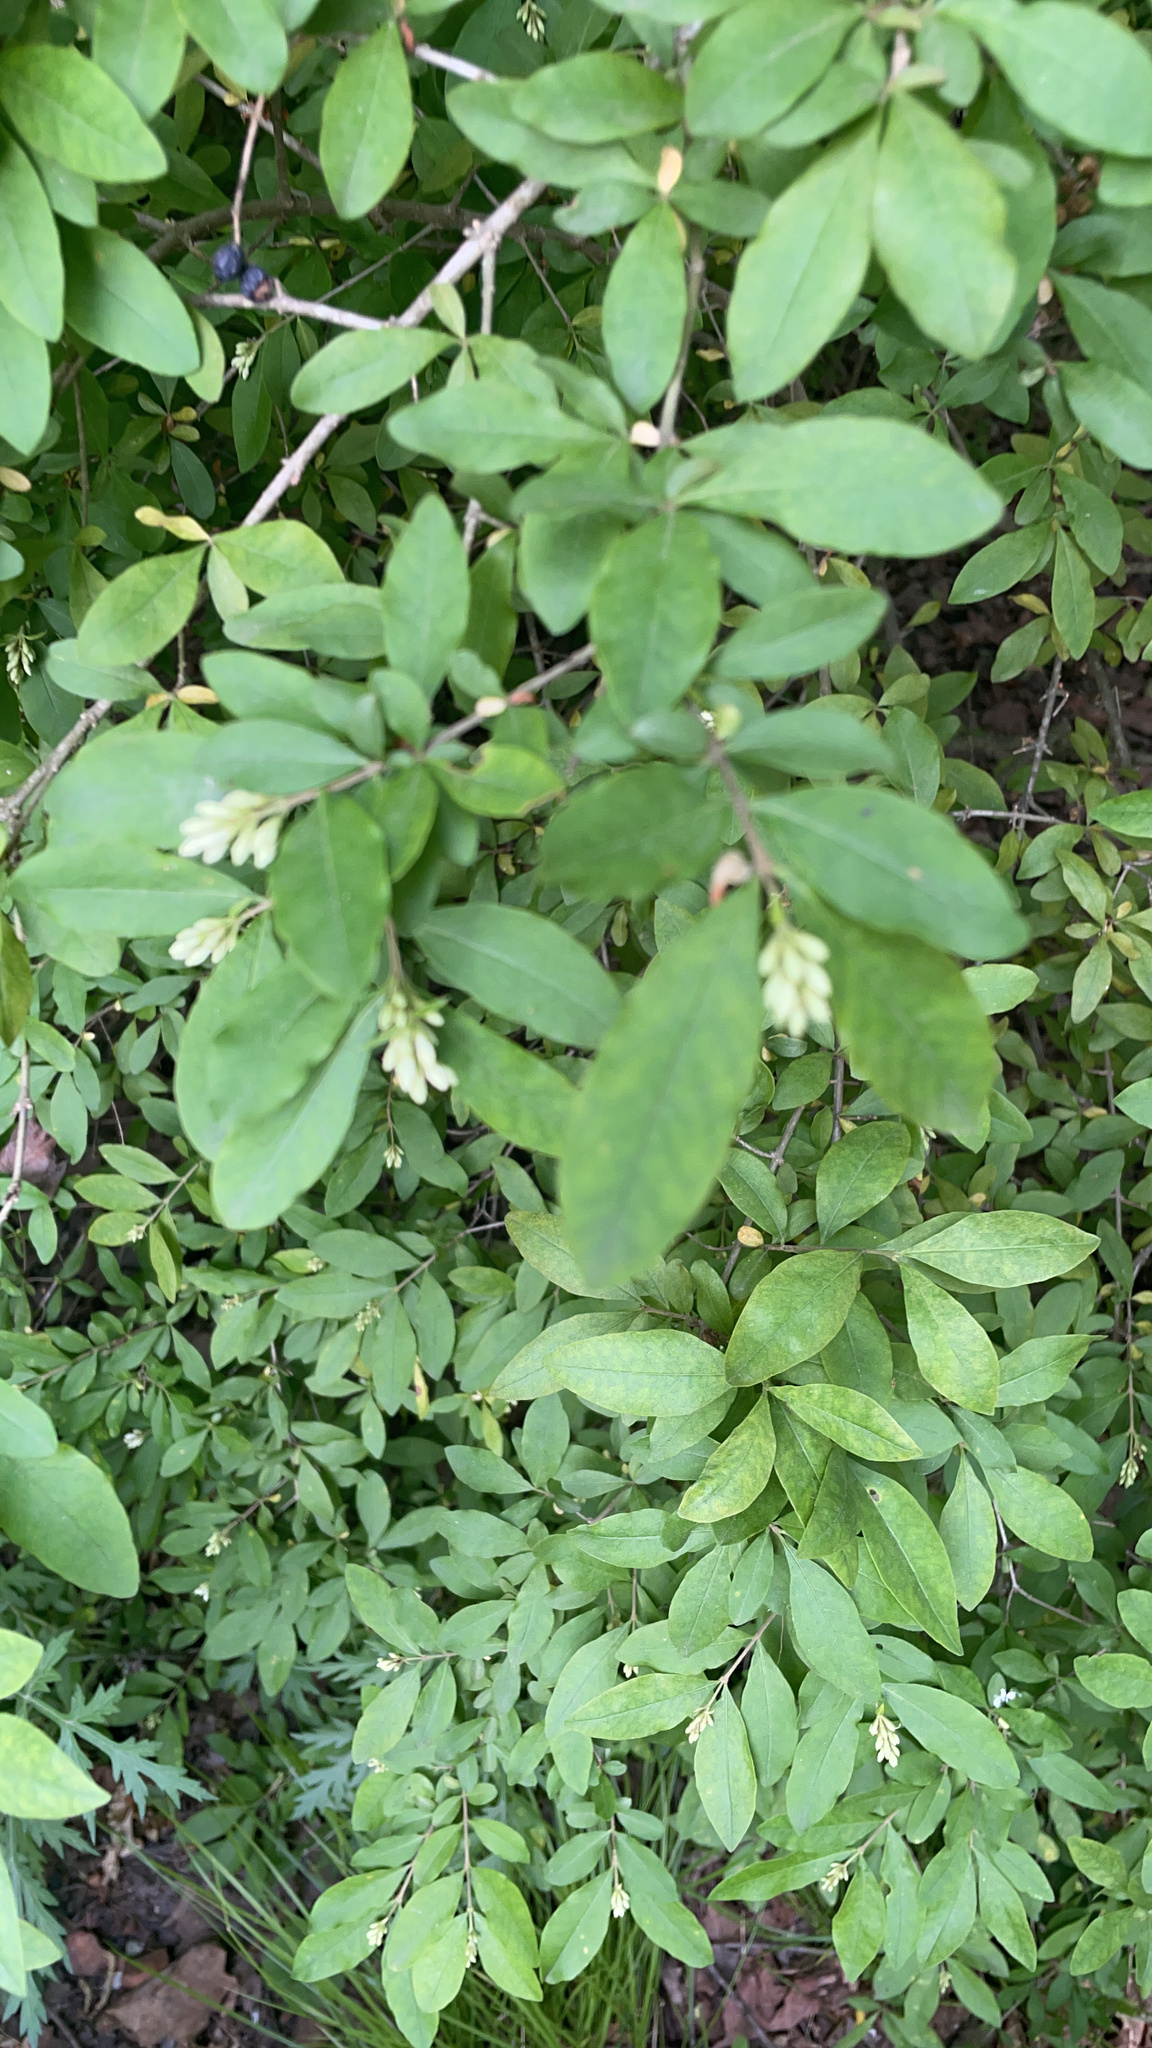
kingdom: Plantae
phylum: Tracheophyta
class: Magnoliopsida
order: Lamiales
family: Oleaceae
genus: Ligustrum
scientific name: Ligustrum obtusifolium
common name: Border privet
